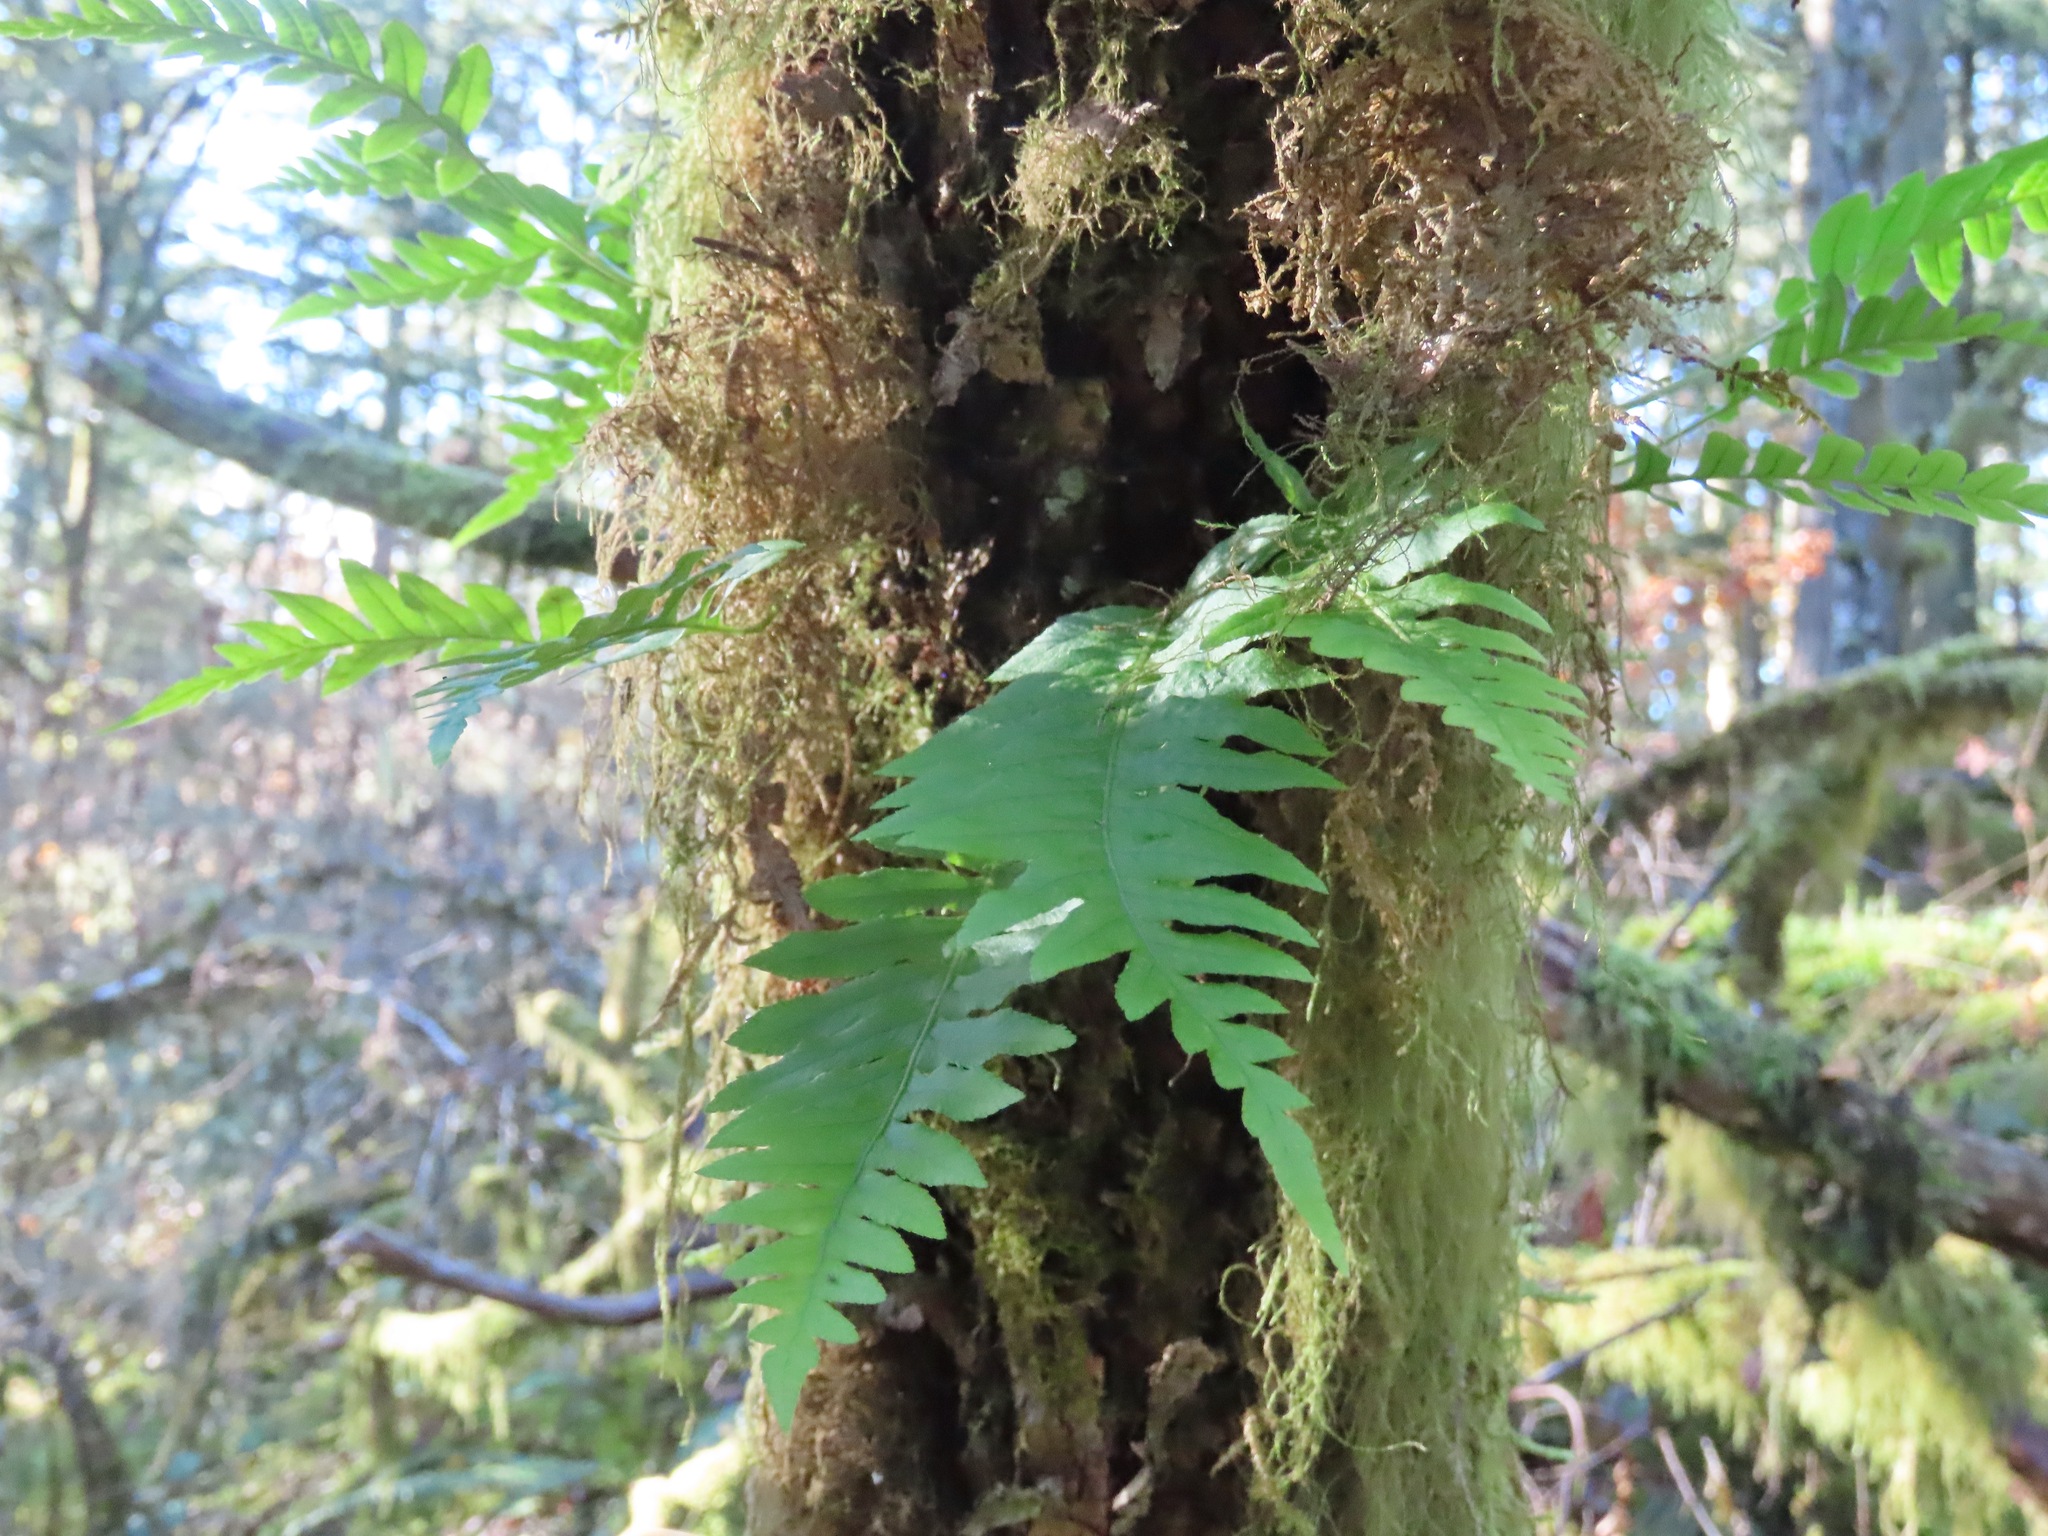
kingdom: Plantae
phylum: Tracheophyta
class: Polypodiopsida
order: Polypodiales
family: Polypodiaceae
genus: Polypodium
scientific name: Polypodium glycyrrhiza
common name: Licorice fern
